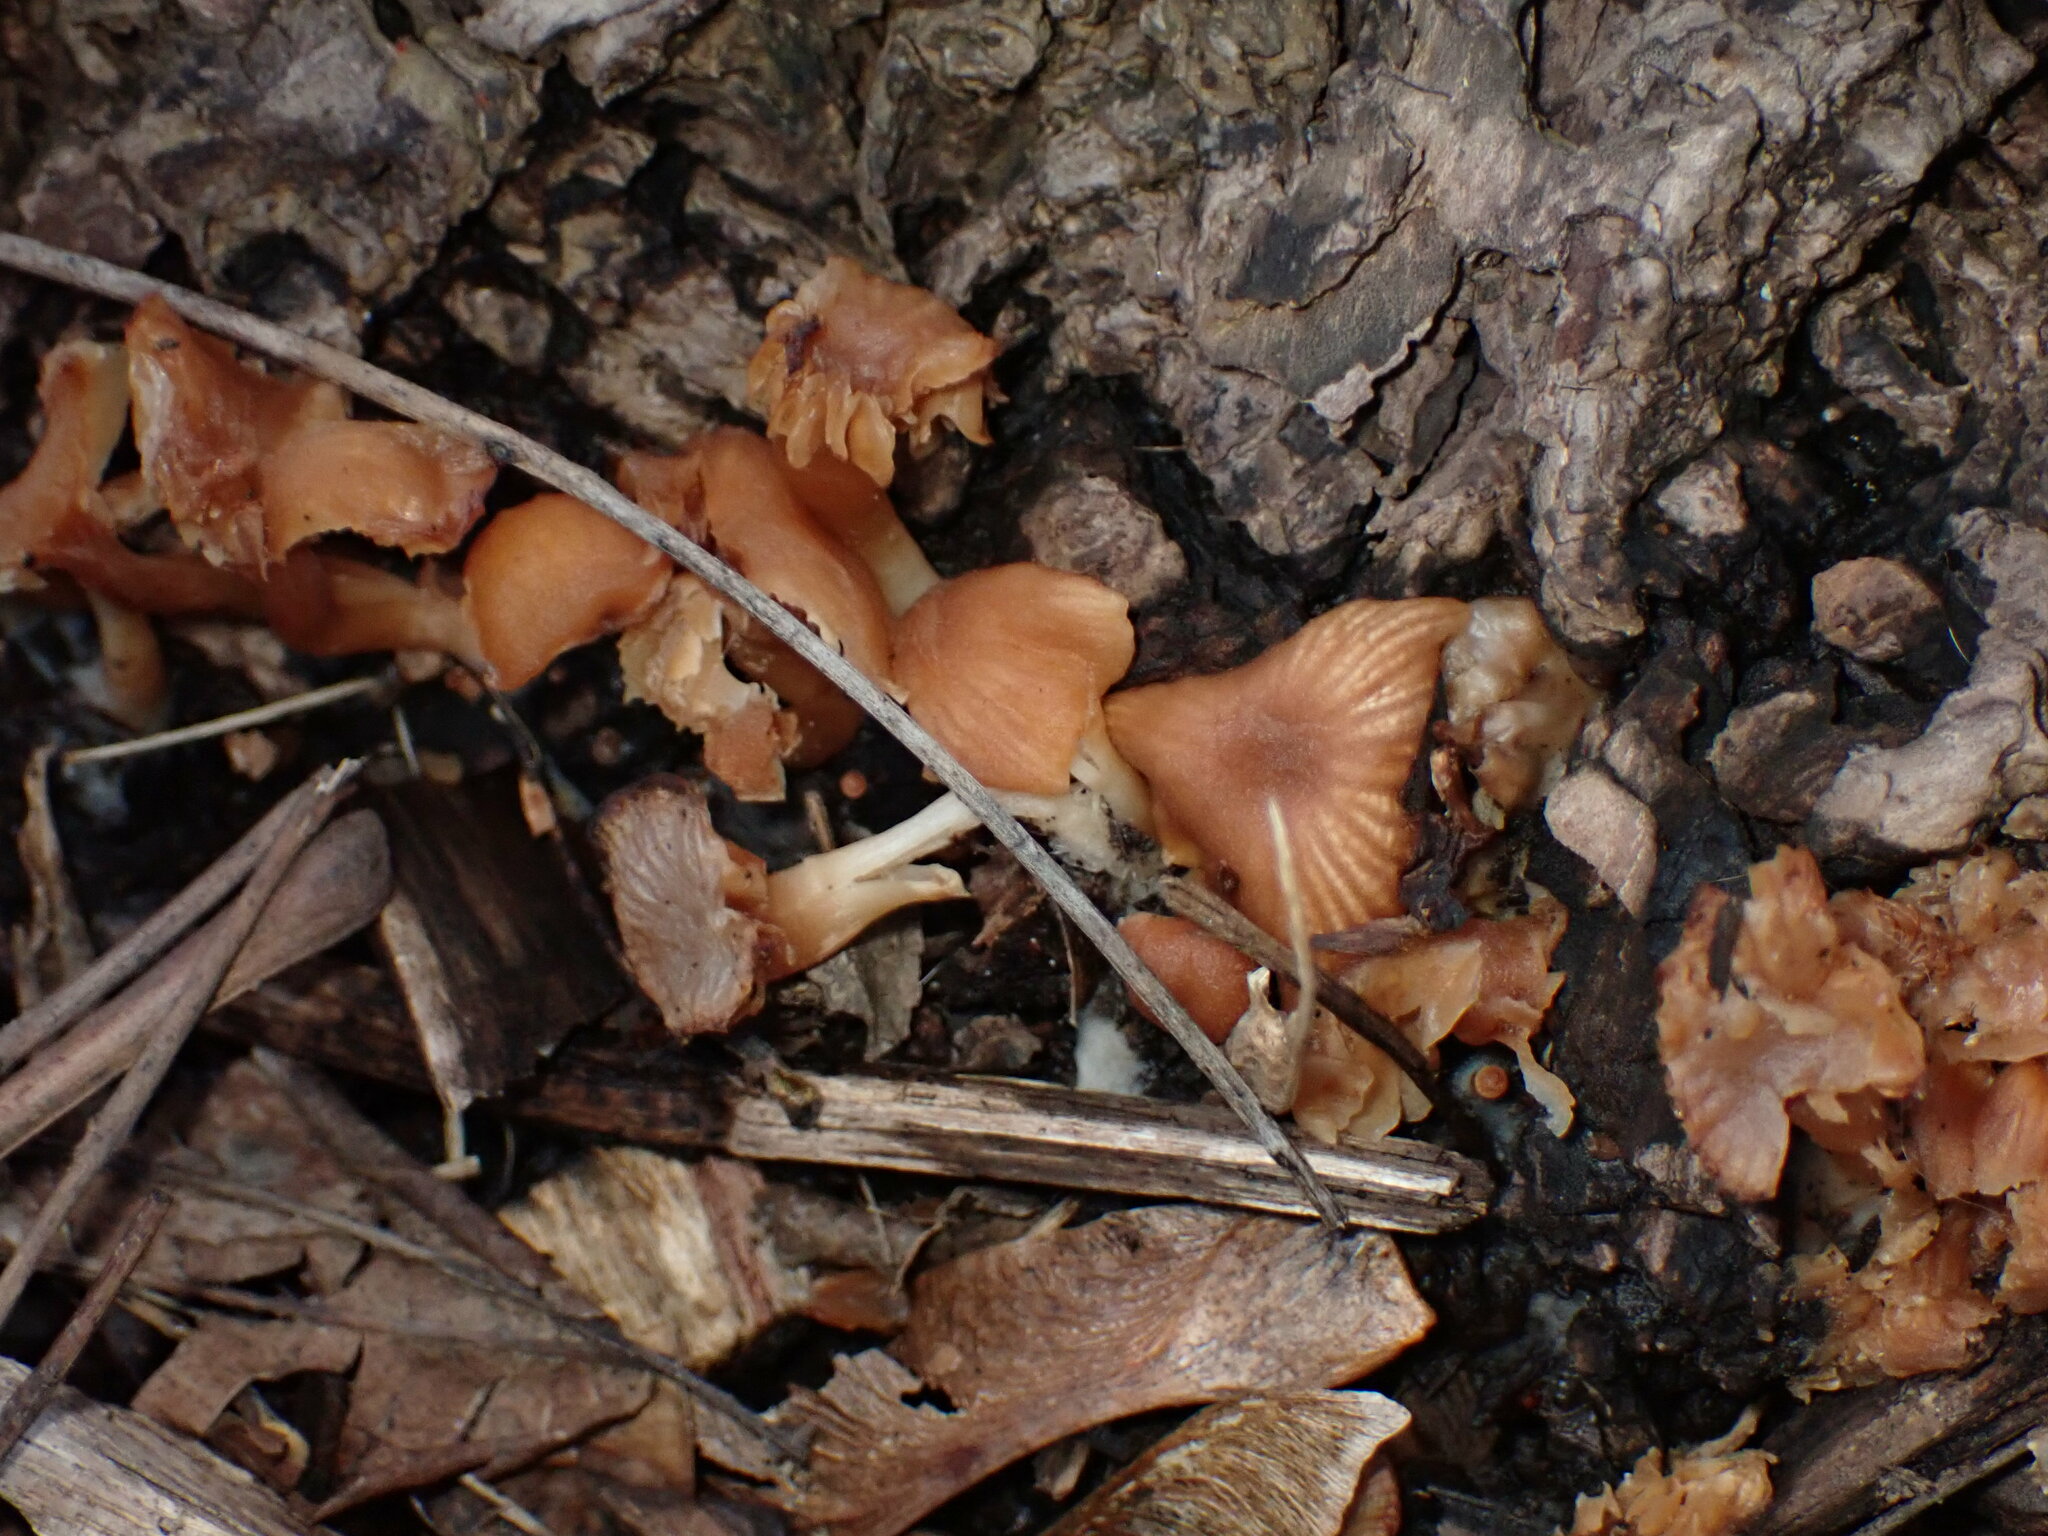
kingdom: Fungi
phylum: Basidiomycota
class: Agaricomycetes
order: Agaricales
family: Tubariaceae
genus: Tubaria
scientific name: Tubaria furfuracea
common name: Scurfy twiglet
